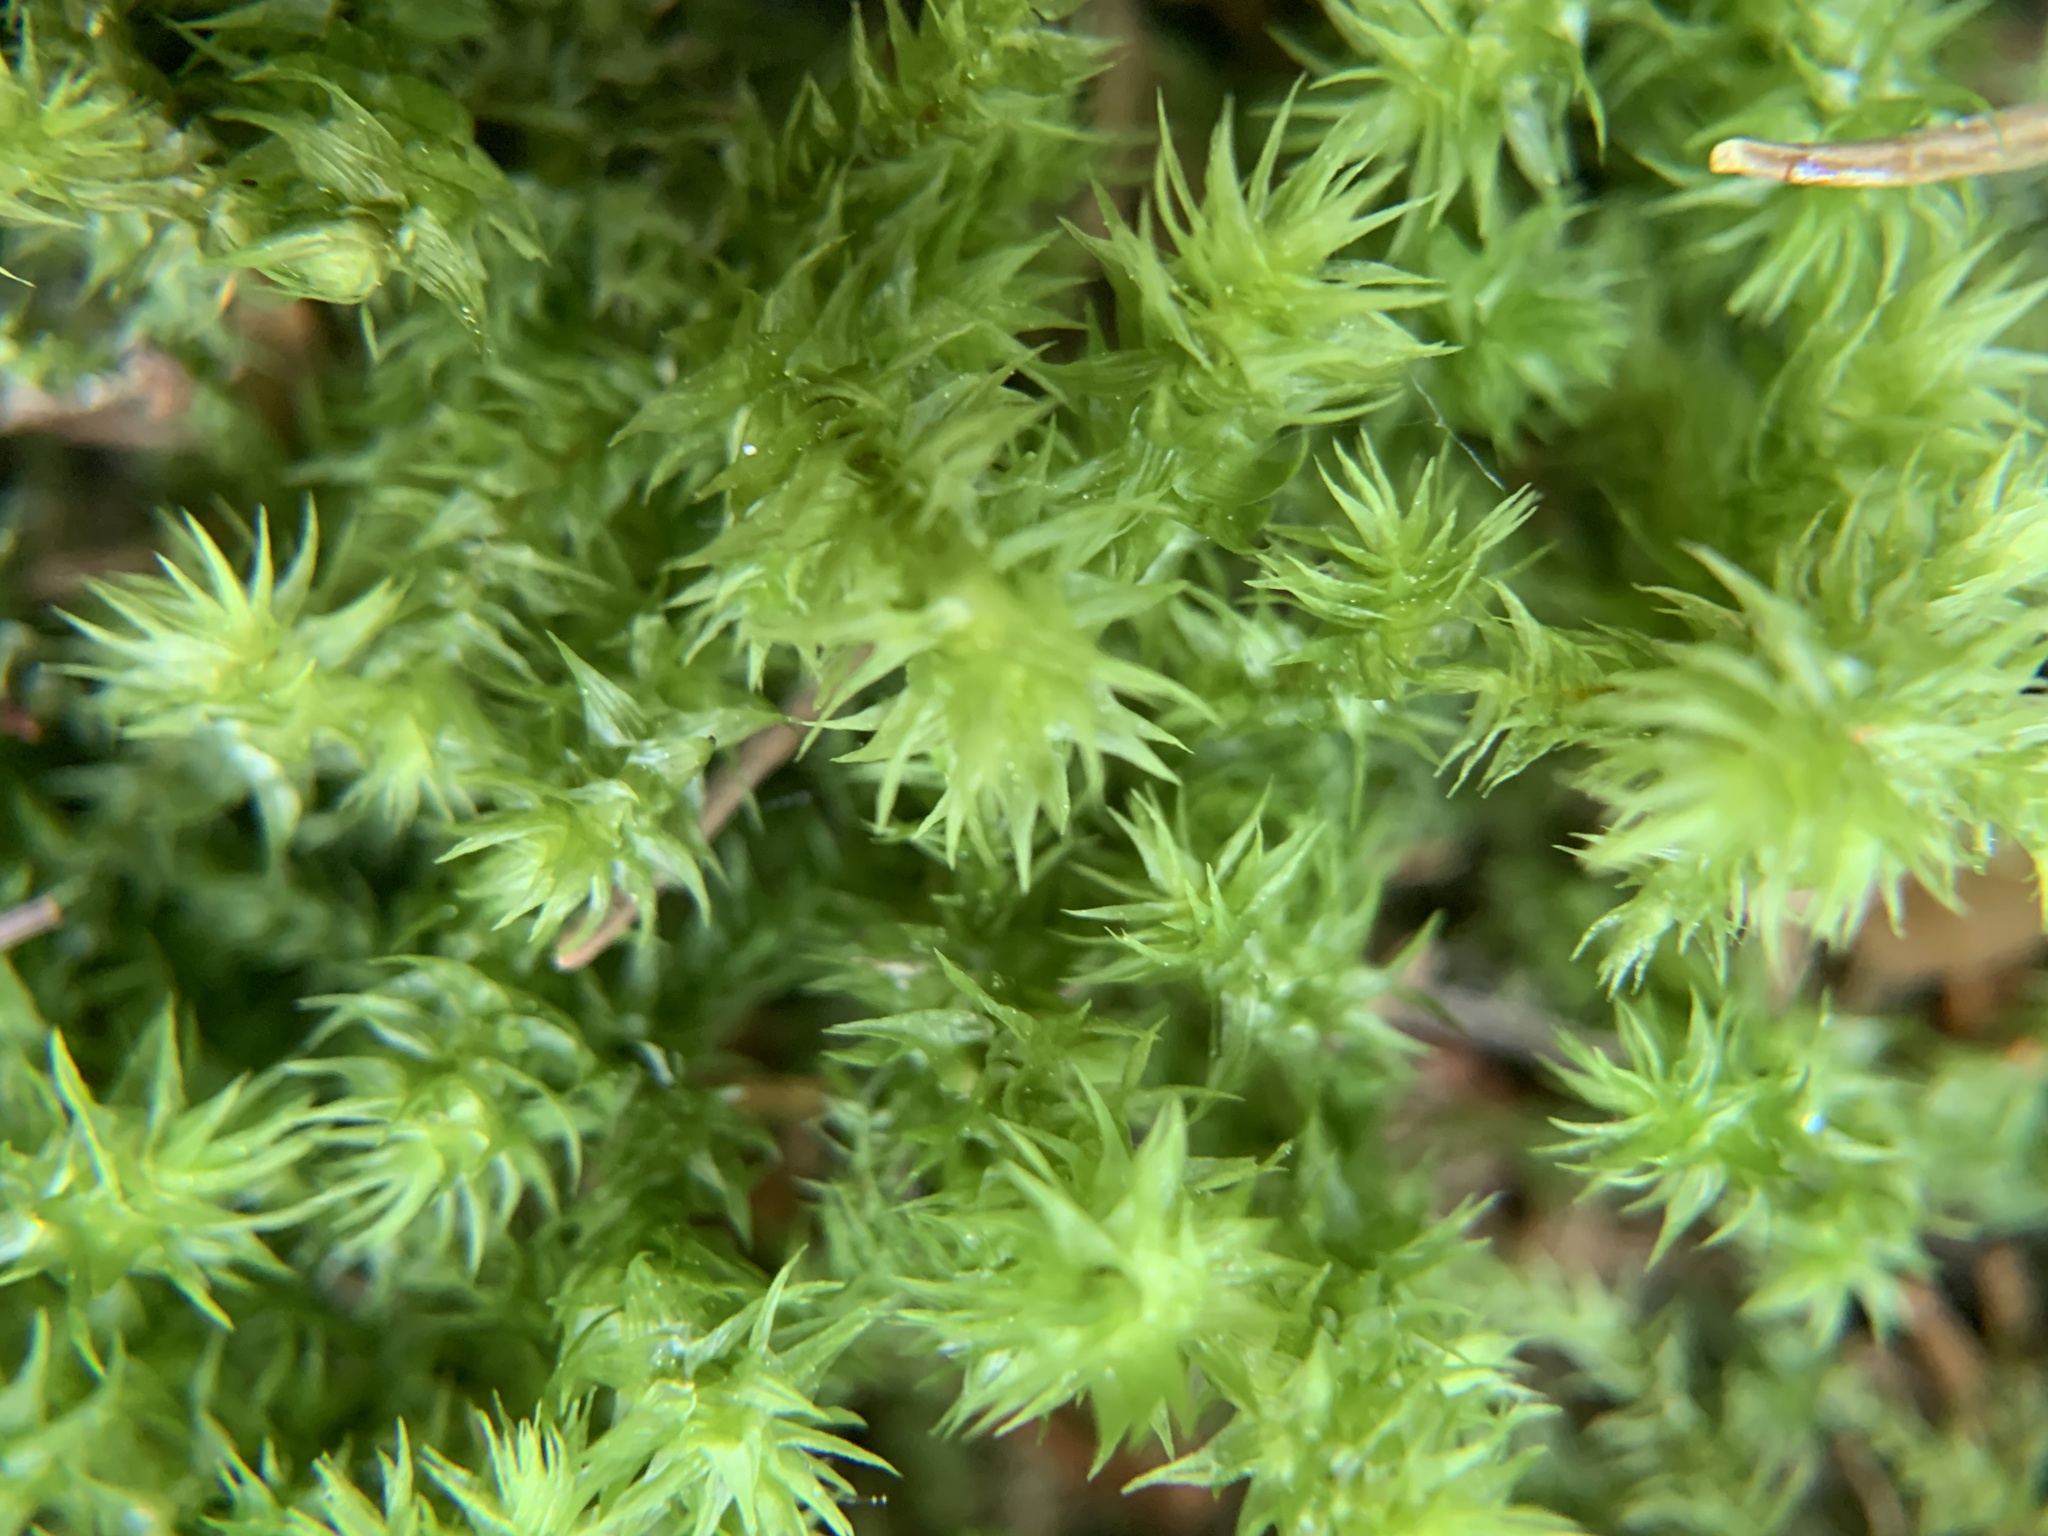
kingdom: Plantae
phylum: Bryophyta
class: Bryopsida
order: Hypnales
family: Hylocomiaceae
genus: Hylocomiadelphus
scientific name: Hylocomiadelphus triquetrus
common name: Rough goose neck moss
